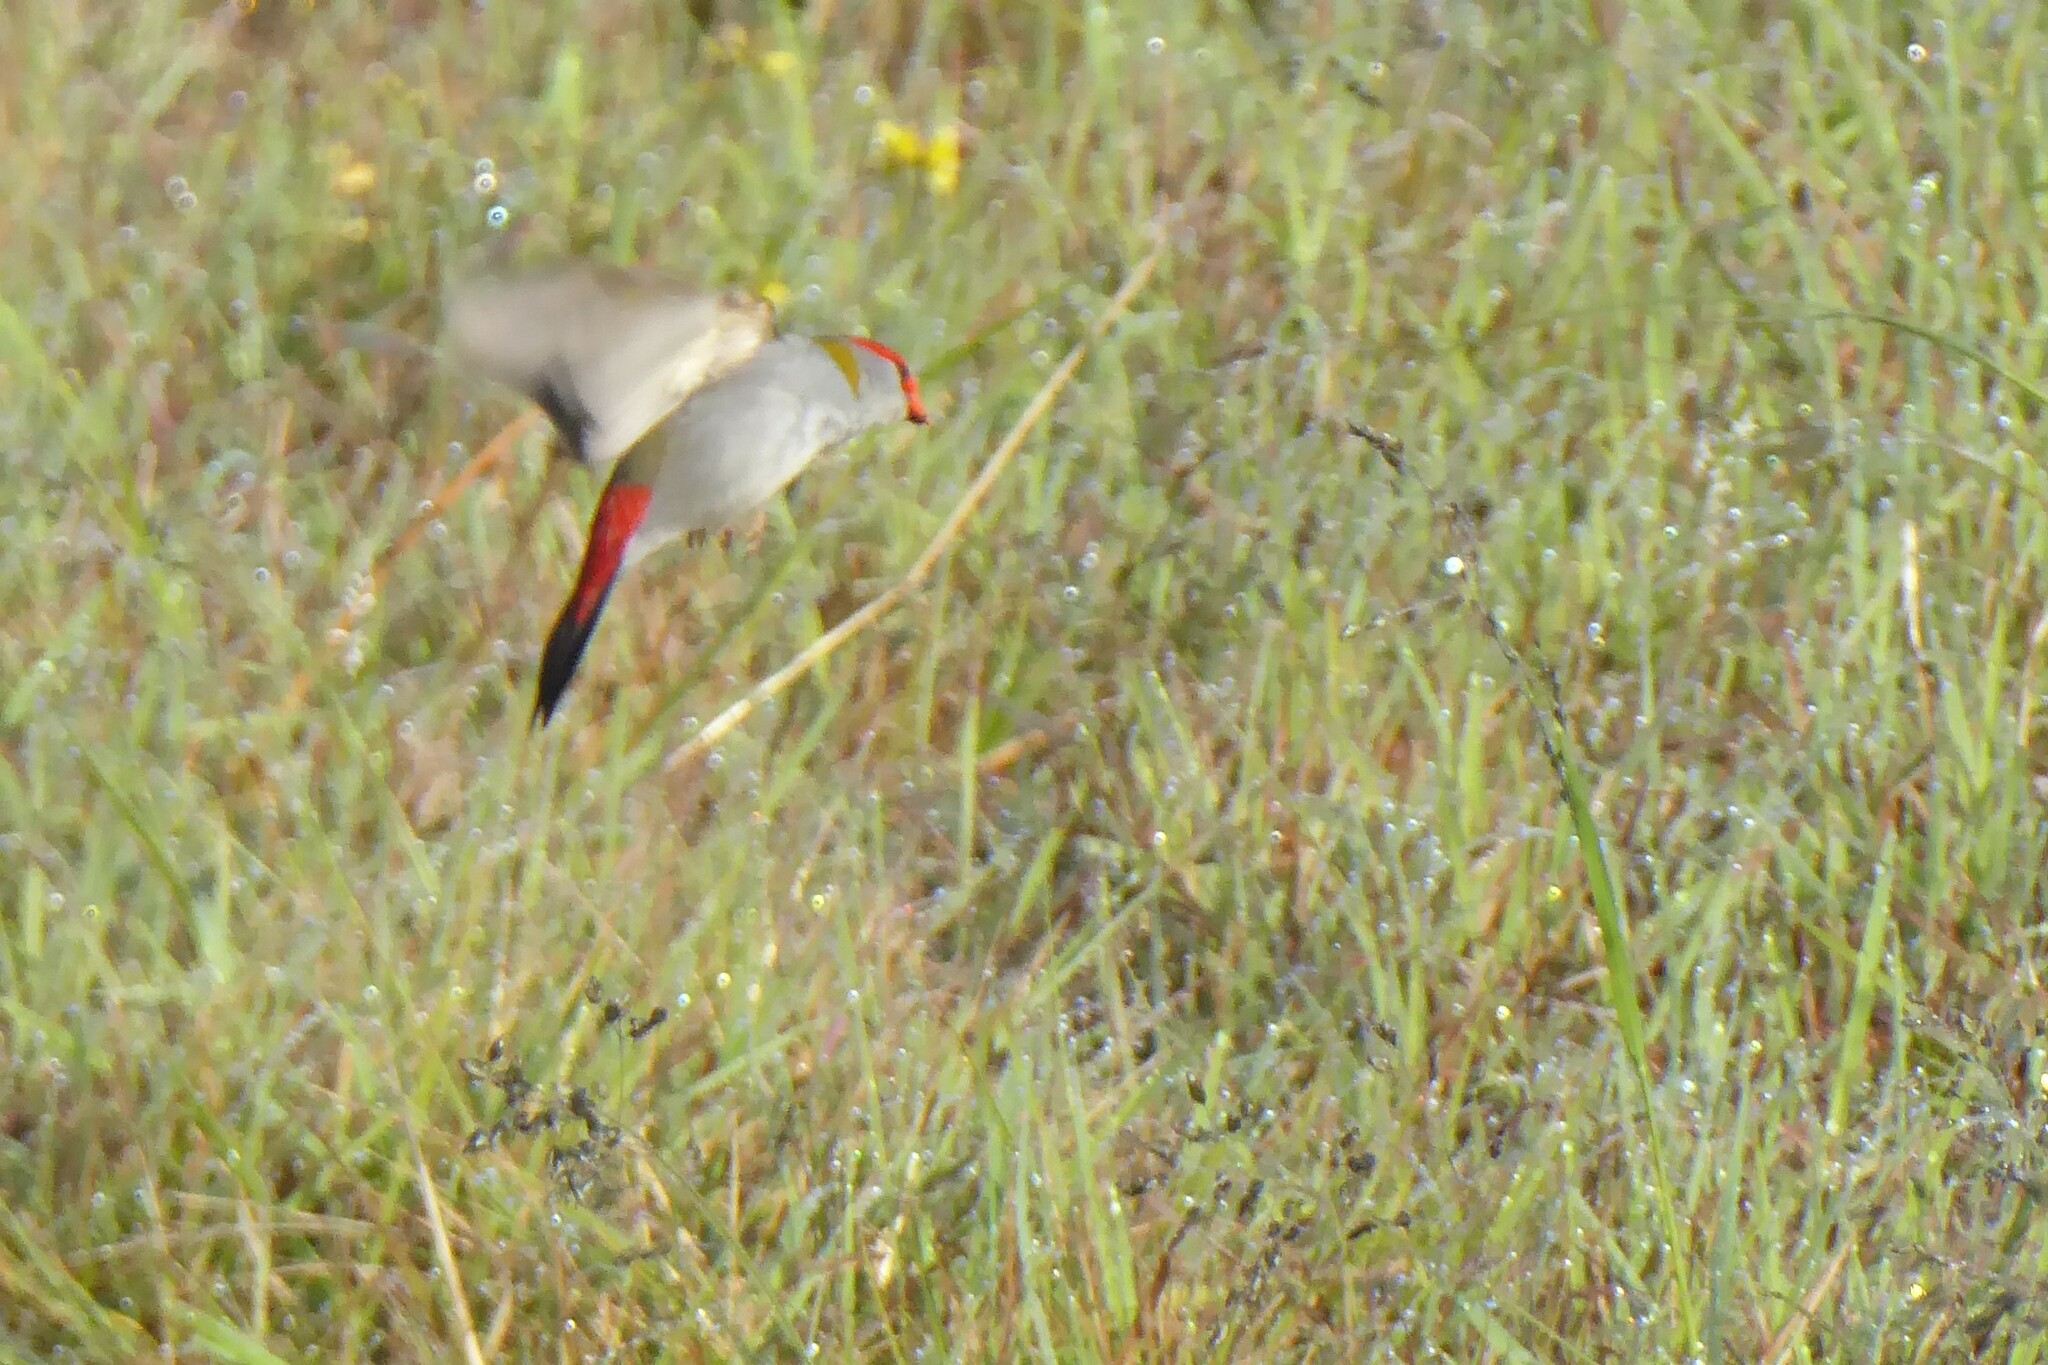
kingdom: Animalia
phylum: Chordata
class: Aves
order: Passeriformes
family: Estrildidae
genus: Neochmia
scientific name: Neochmia temporalis
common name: Red-browed finch
